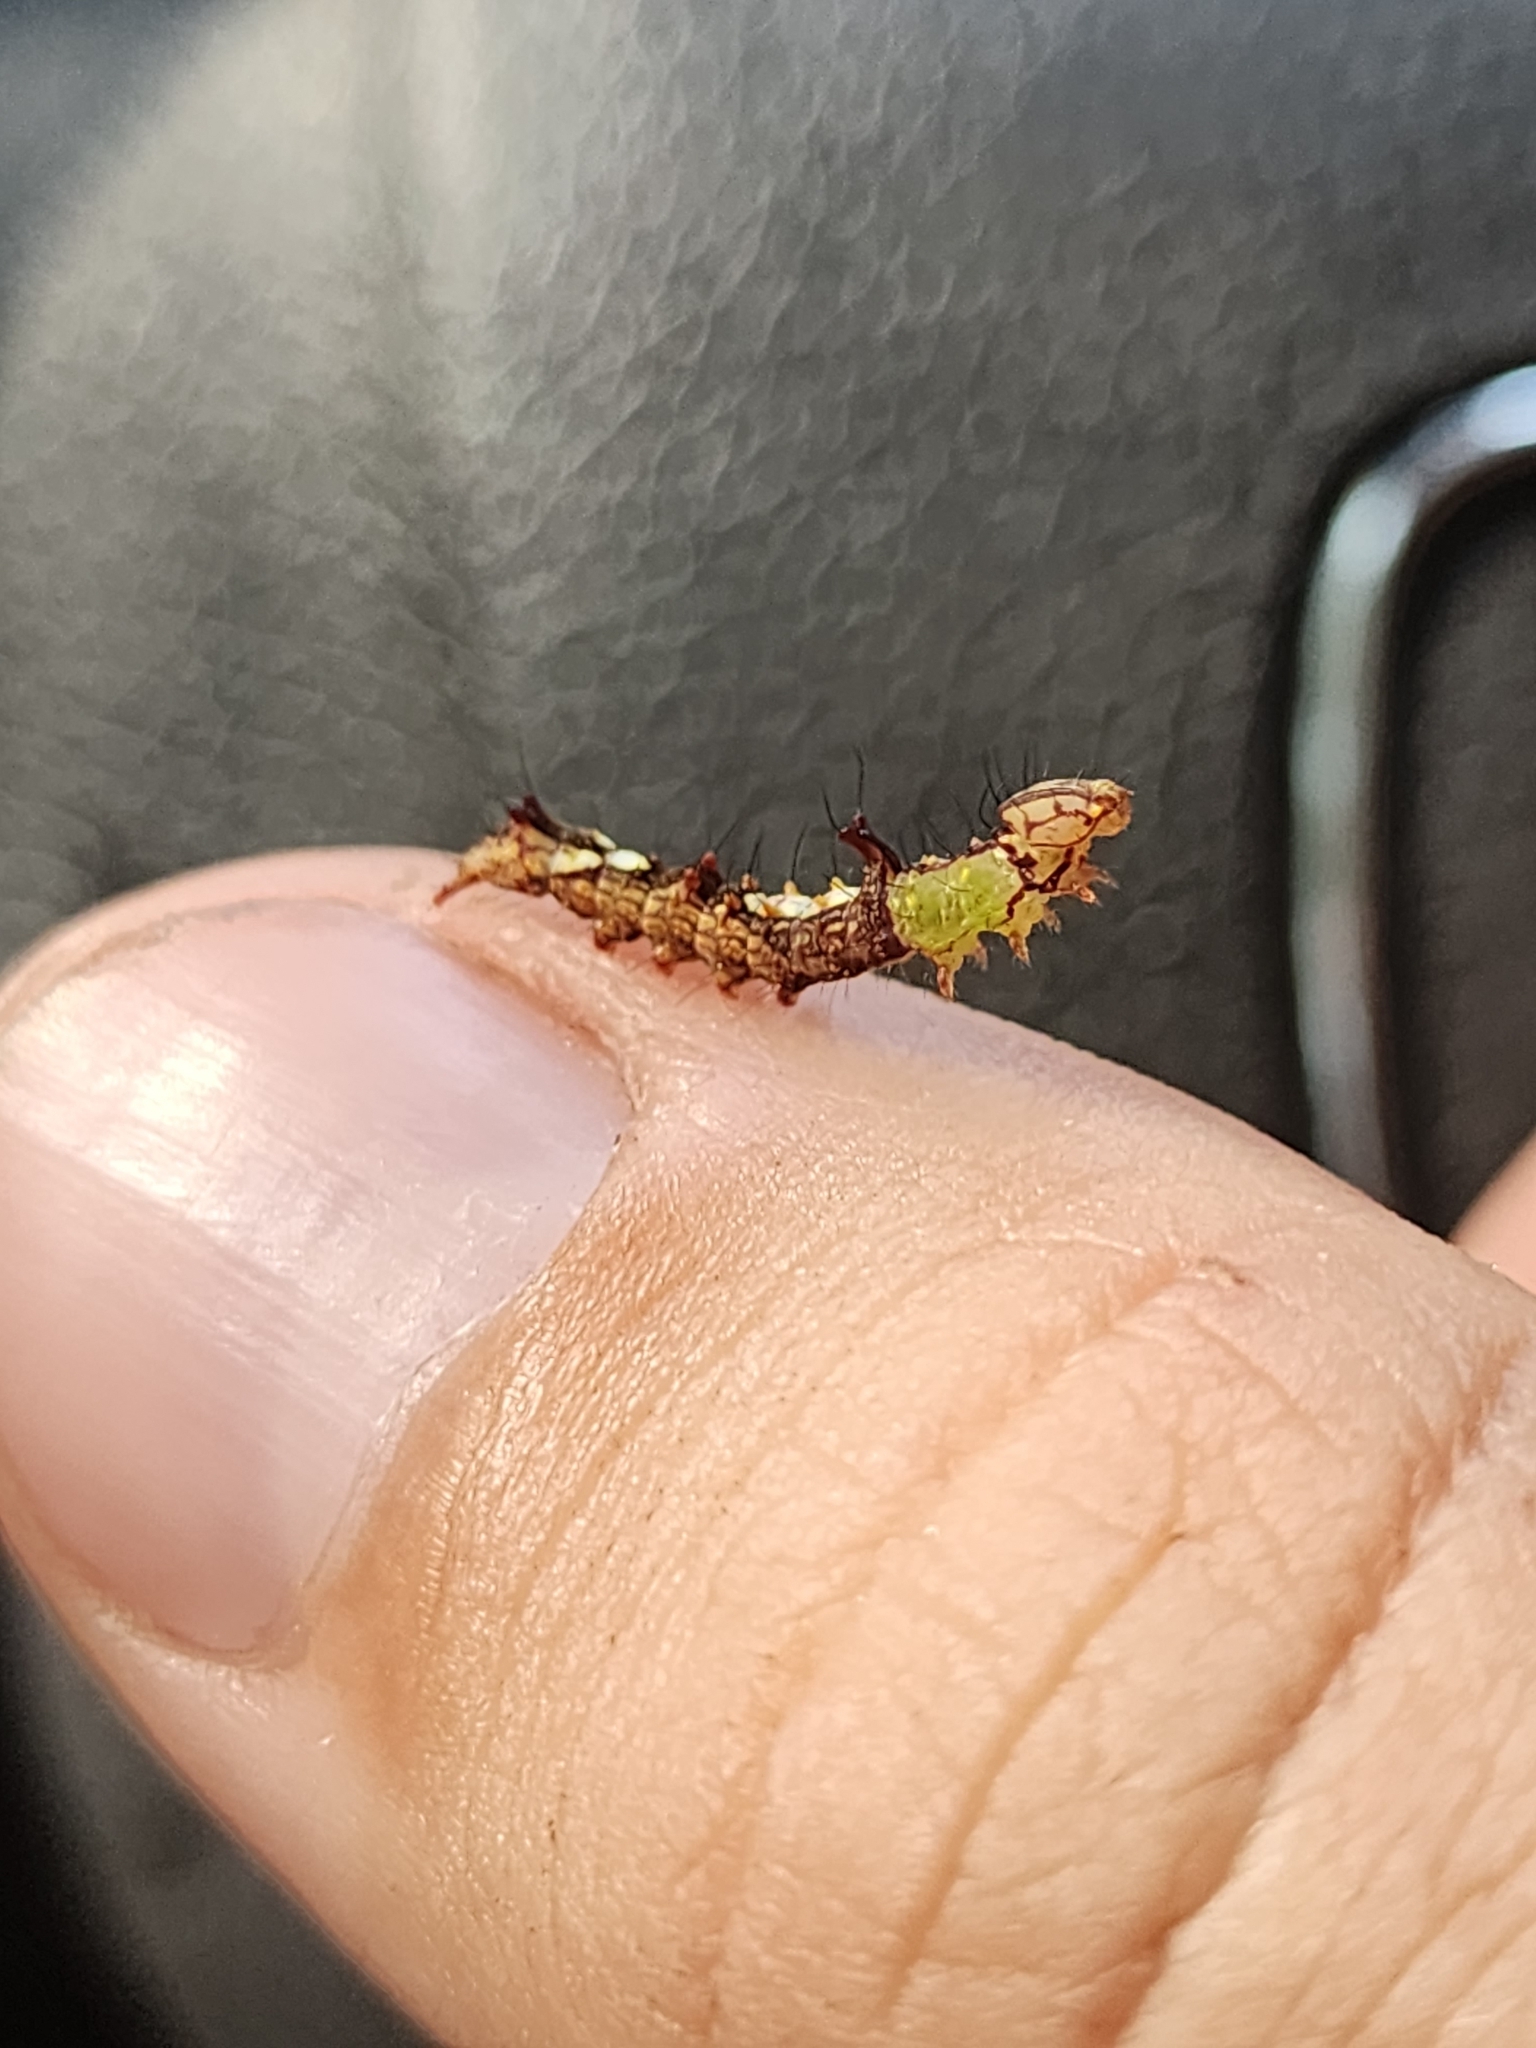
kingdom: Animalia
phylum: Arthropoda
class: Insecta
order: Lepidoptera
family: Notodontidae
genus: Schizura
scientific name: Schizura ipomaeae
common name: Morning-glory prominent
